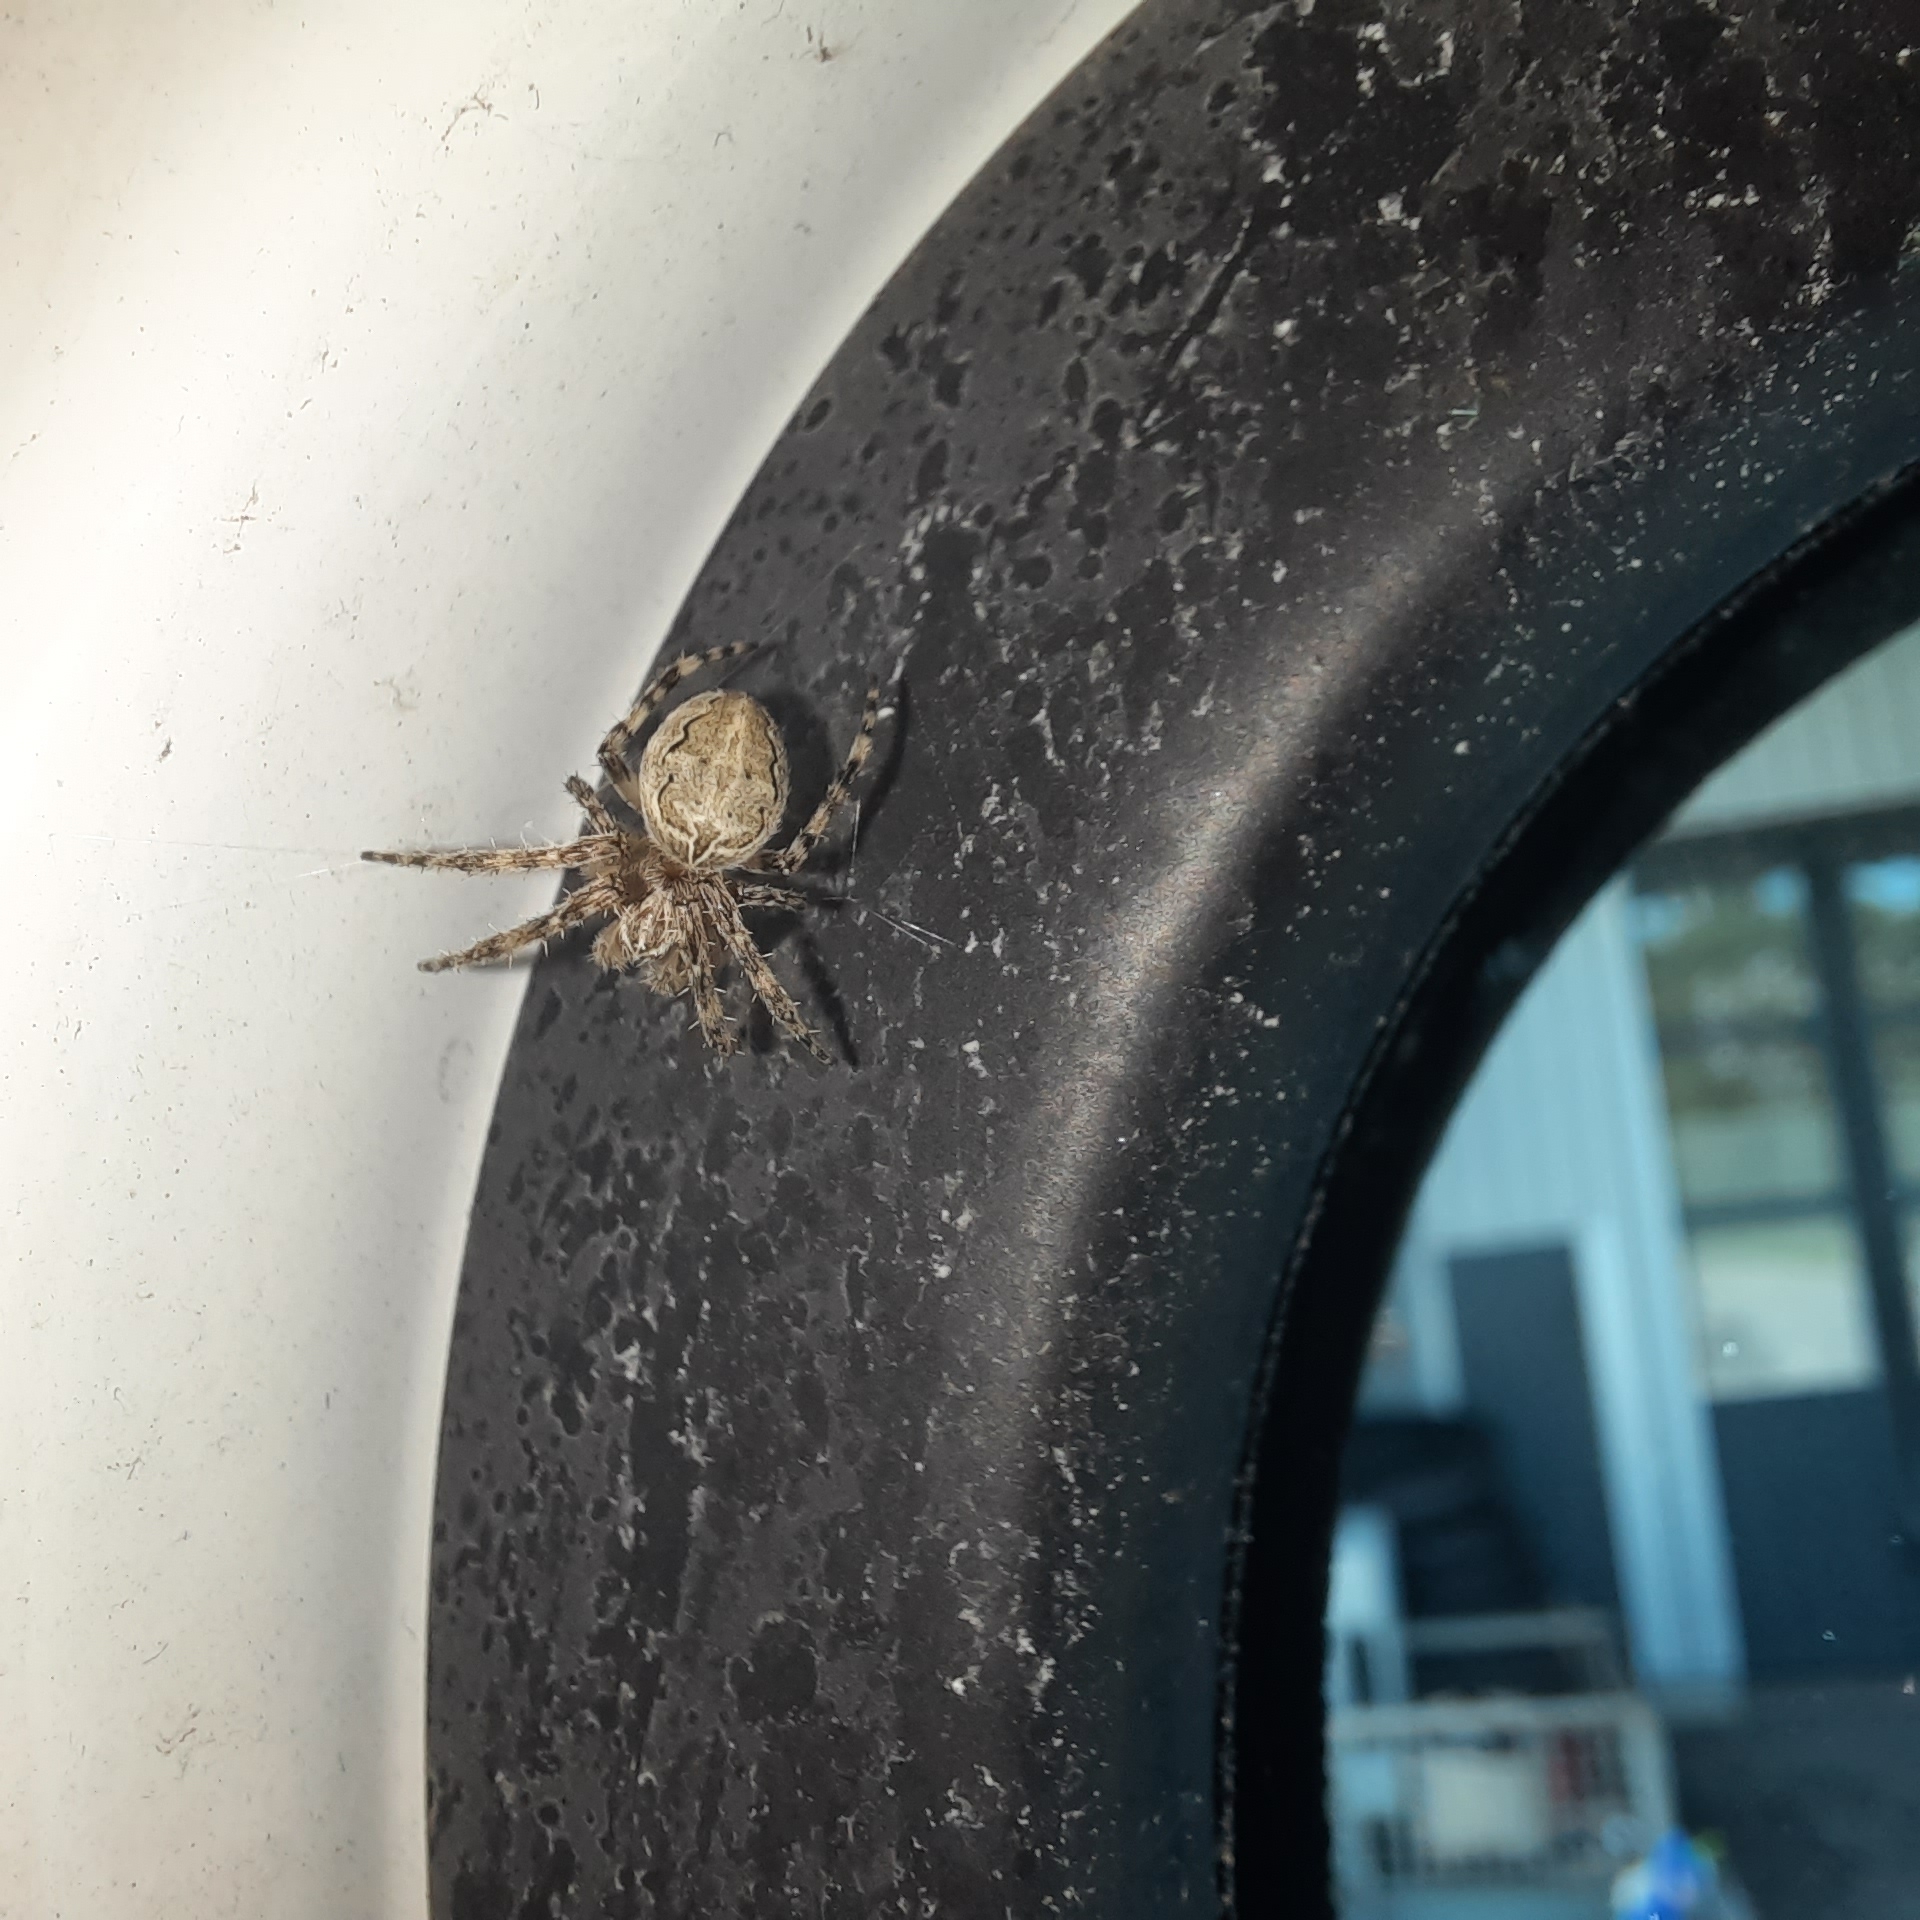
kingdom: Animalia
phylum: Arthropoda
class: Arachnida
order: Araneae
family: Araneidae
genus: Larinioides
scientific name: Larinioides sclopetarius
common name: Bridge orbweaver
